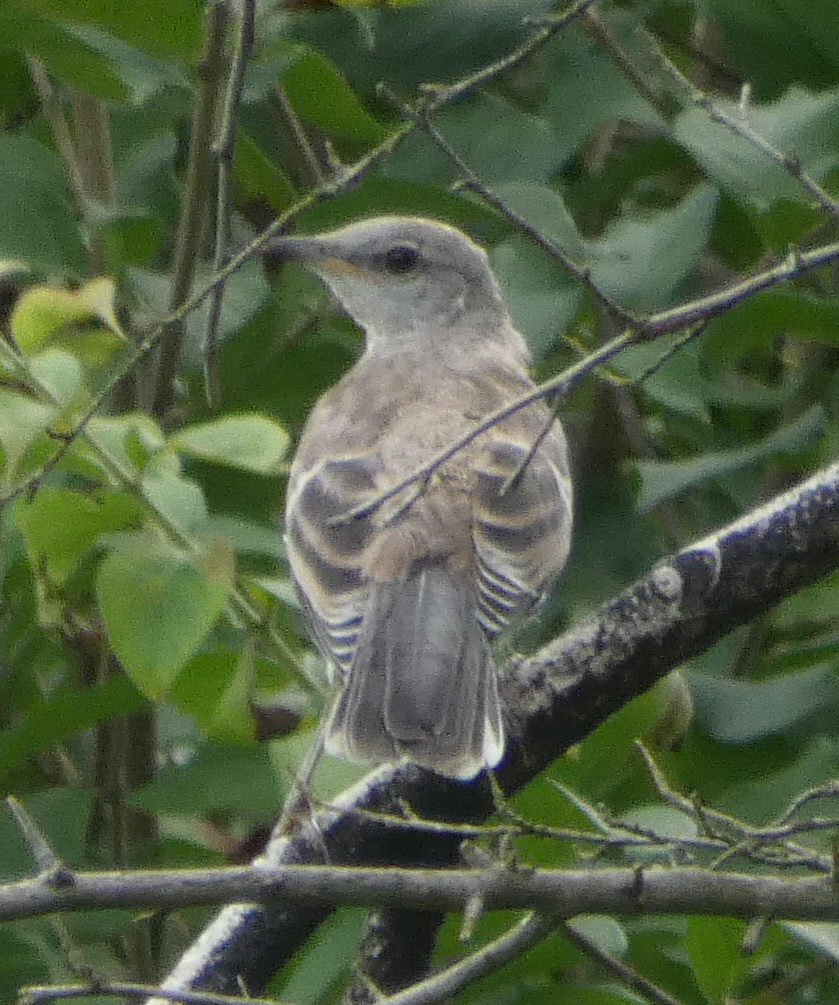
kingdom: Animalia
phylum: Chordata
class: Aves
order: Passeriformes
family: Mimidae
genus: Mimus
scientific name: Mimus polyglottos
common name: Northern mockingbird
